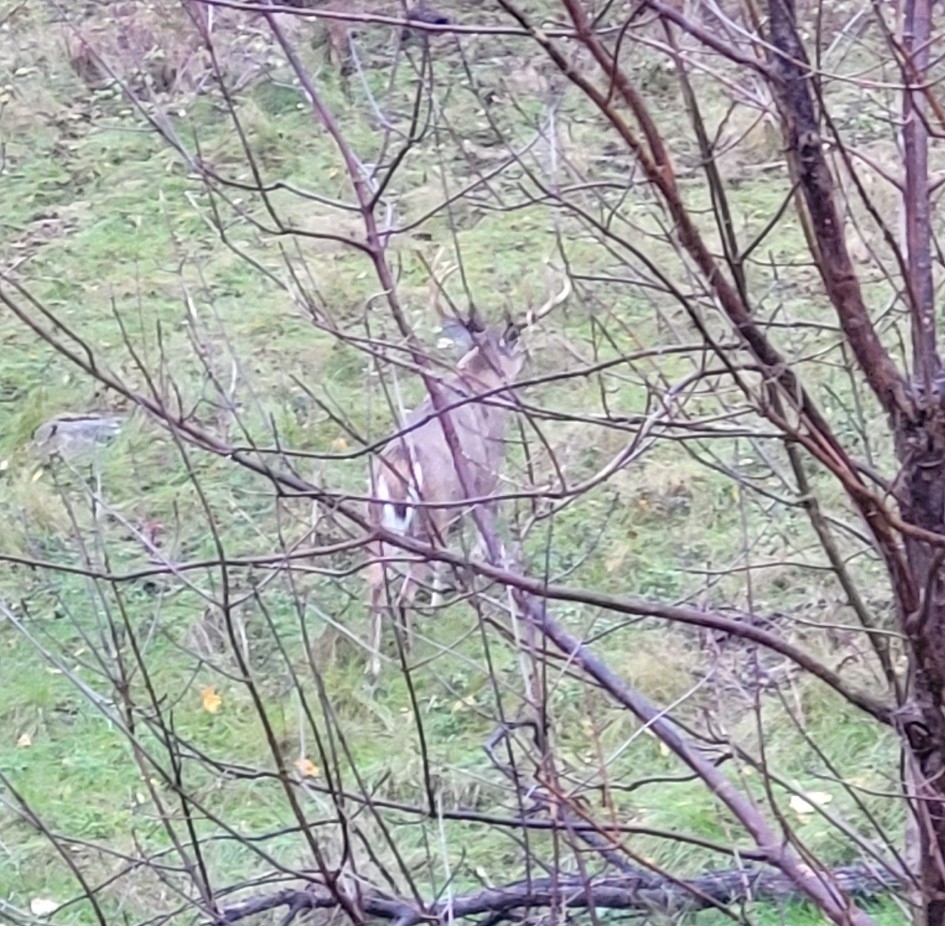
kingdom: Animalia
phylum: Chordata
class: Mammalia
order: Artiodactyla
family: Cervidae
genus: Odocoileus
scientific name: Odocoileus virginianus
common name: White-tailed deer
